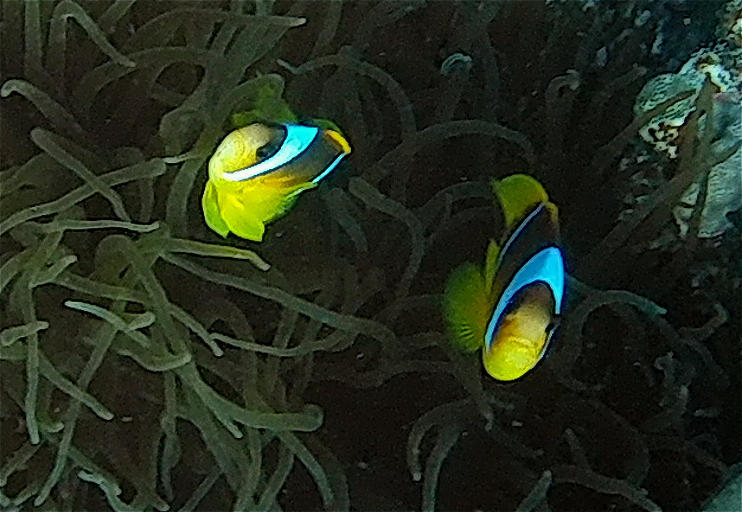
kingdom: Animalia
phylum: Chordata
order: Perciformes
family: Pomacentridae
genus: Amphiprion
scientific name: Amphiprion bicinctus
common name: Two-banded anemonefish
